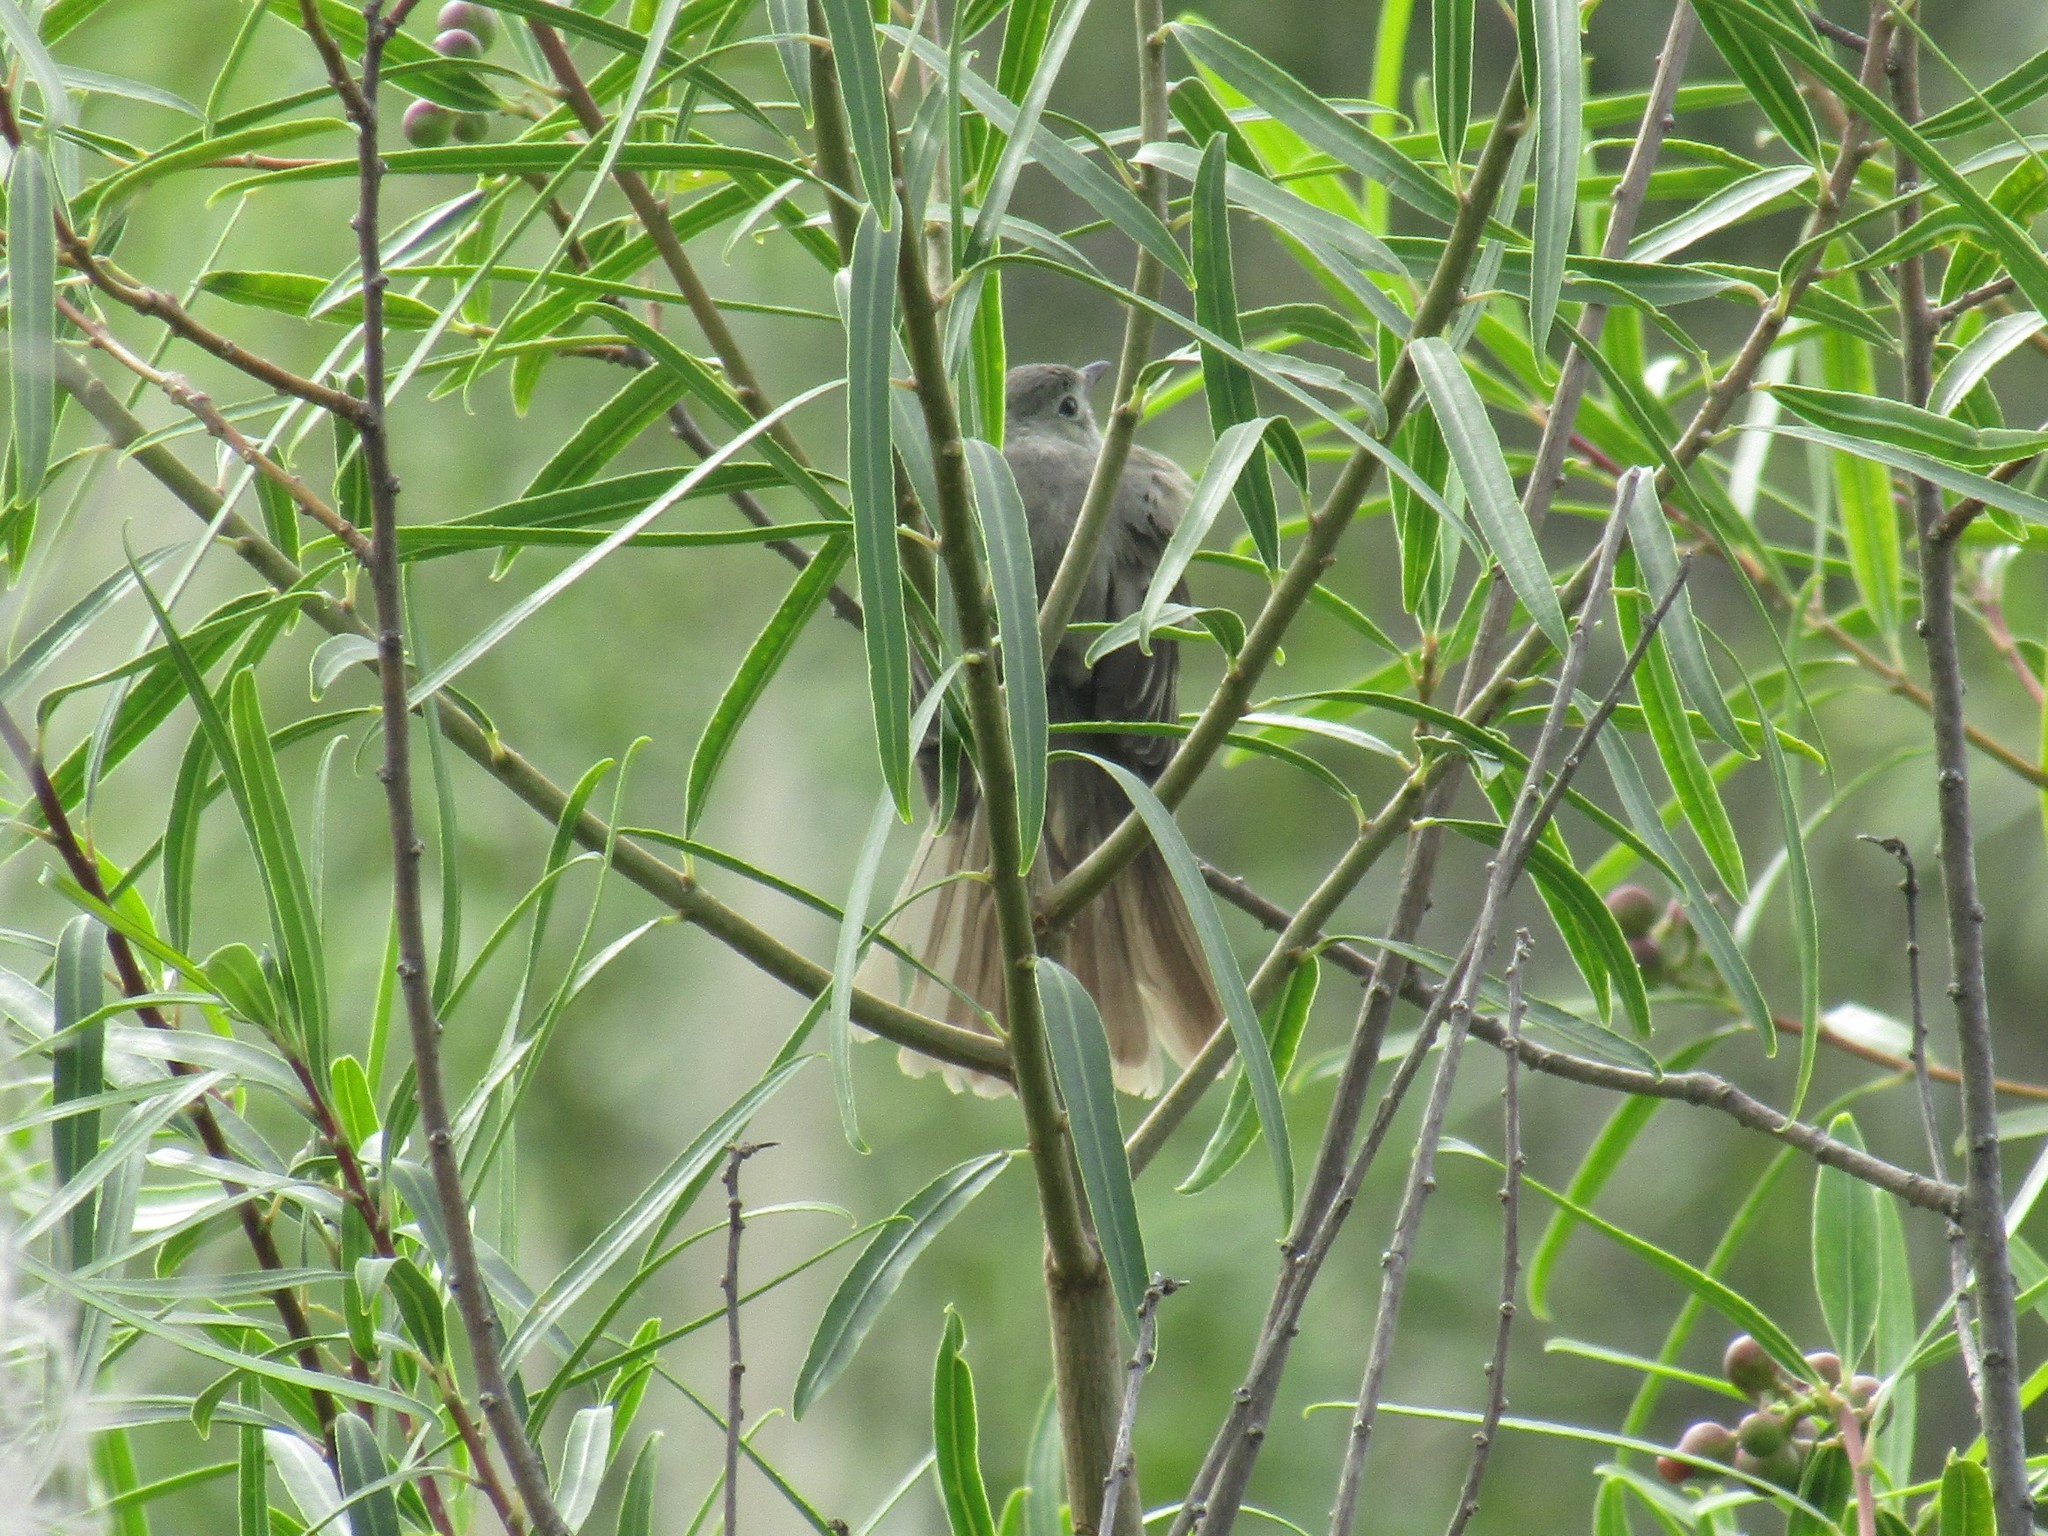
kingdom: Animalia
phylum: Chordata
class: Aves
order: Passeriformes
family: Tyrannidae
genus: Elaenia
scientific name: Elaenia parvirostris
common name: Small-billed elaenia
